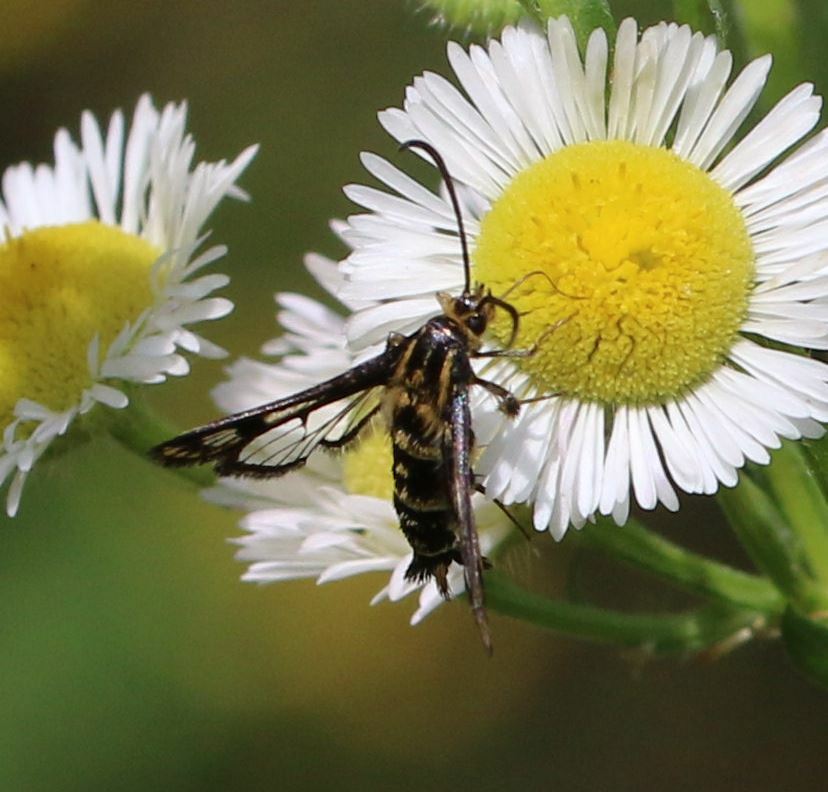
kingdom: Animalia
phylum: Arthropoda
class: Insecta
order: Lepidoptera
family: Sesiidae
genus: Chamaesphecia
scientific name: Chamaesphecia empiformis
